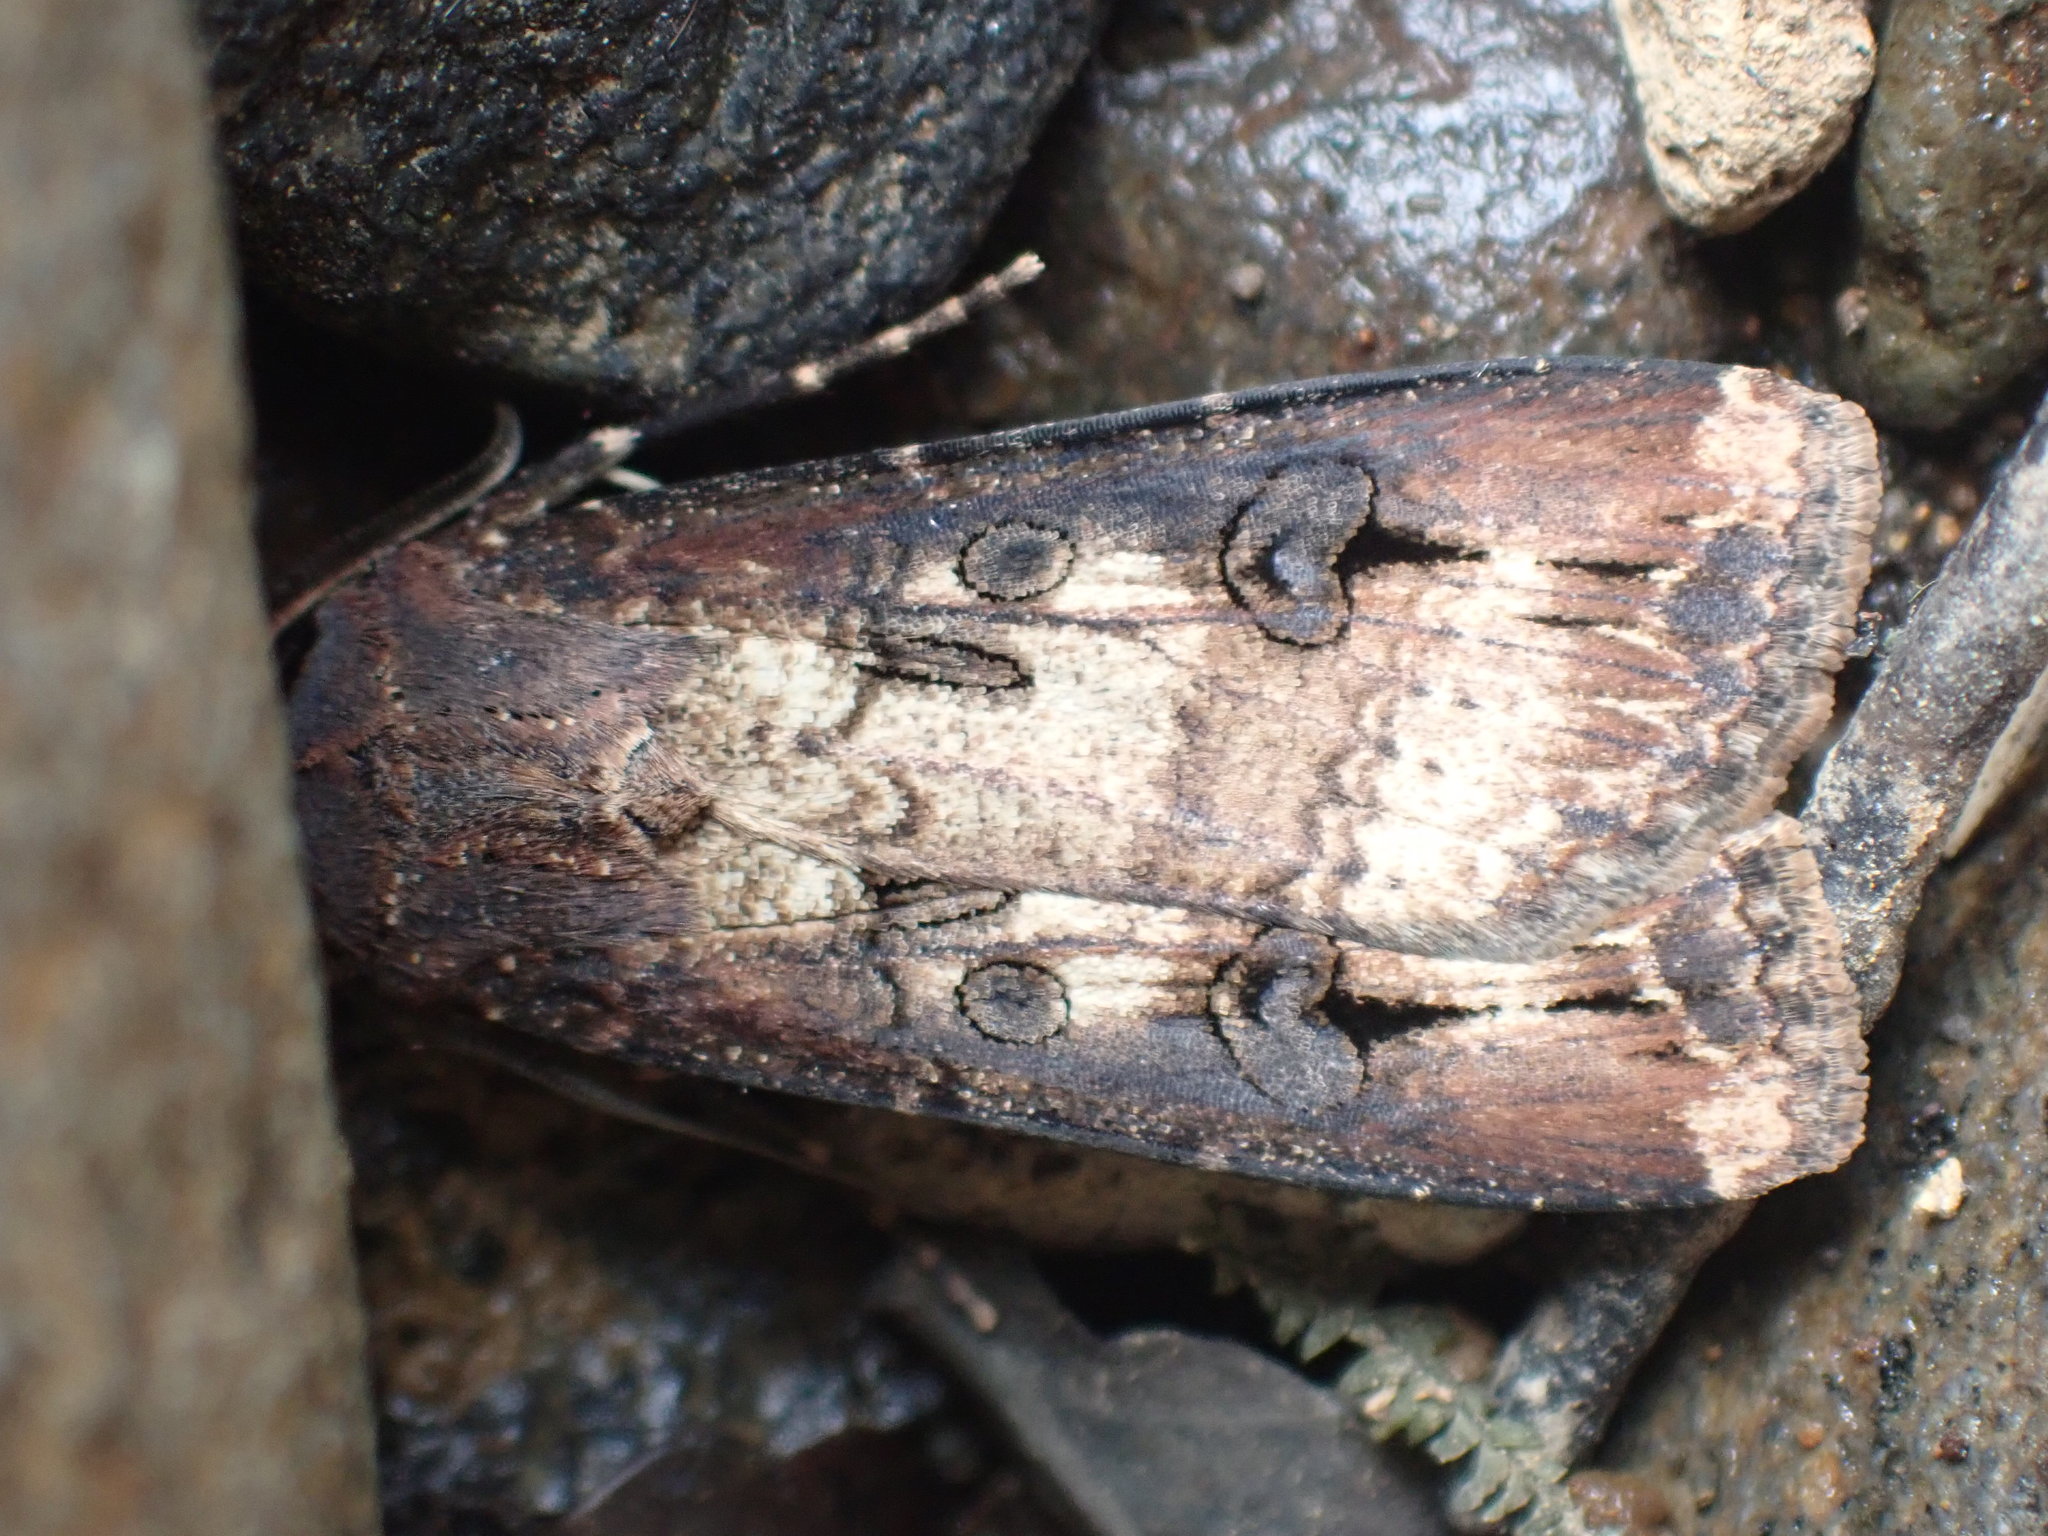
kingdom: Animalia
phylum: Arthropoda
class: Insecta
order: Lepidoptera
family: Noctuidae
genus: Agrotis
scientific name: Agrotis ipsilon
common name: Dark sword-grass
